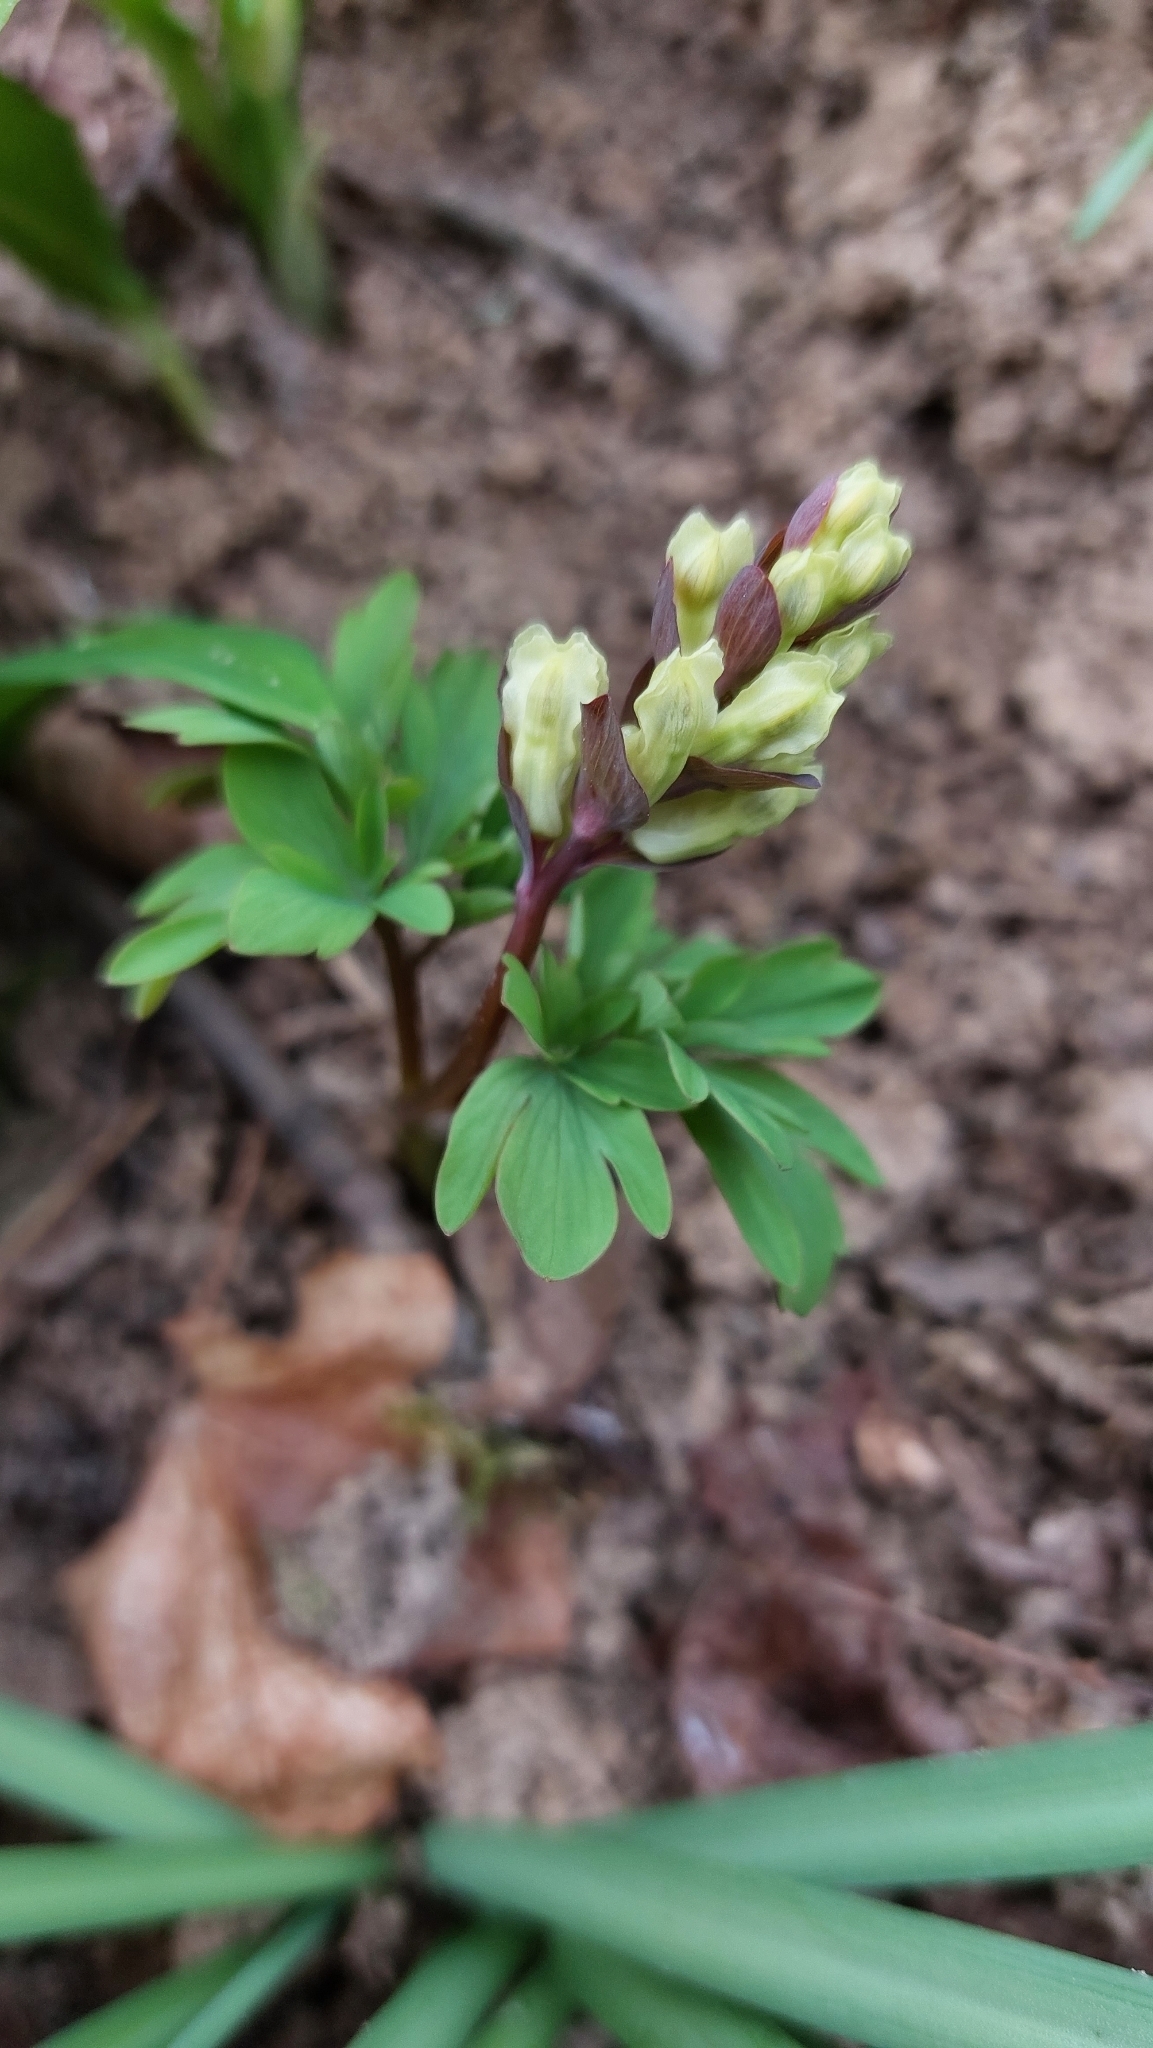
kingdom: Plantae
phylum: Tracheophyta
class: Magnoliopsida
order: Ranunculales
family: Papaveraceae
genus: Corydalis
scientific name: Corydalis cava
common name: Hollowroot
